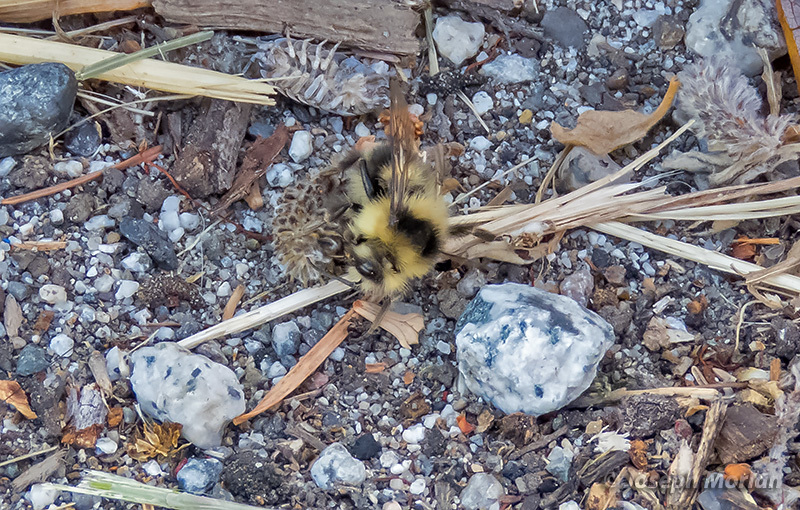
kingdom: Animalia
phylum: Arthropoda
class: Insecta
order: Hymenoptera
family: Apidae
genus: Bombus
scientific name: Bombus melanopygus
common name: Black tail bumble bee
